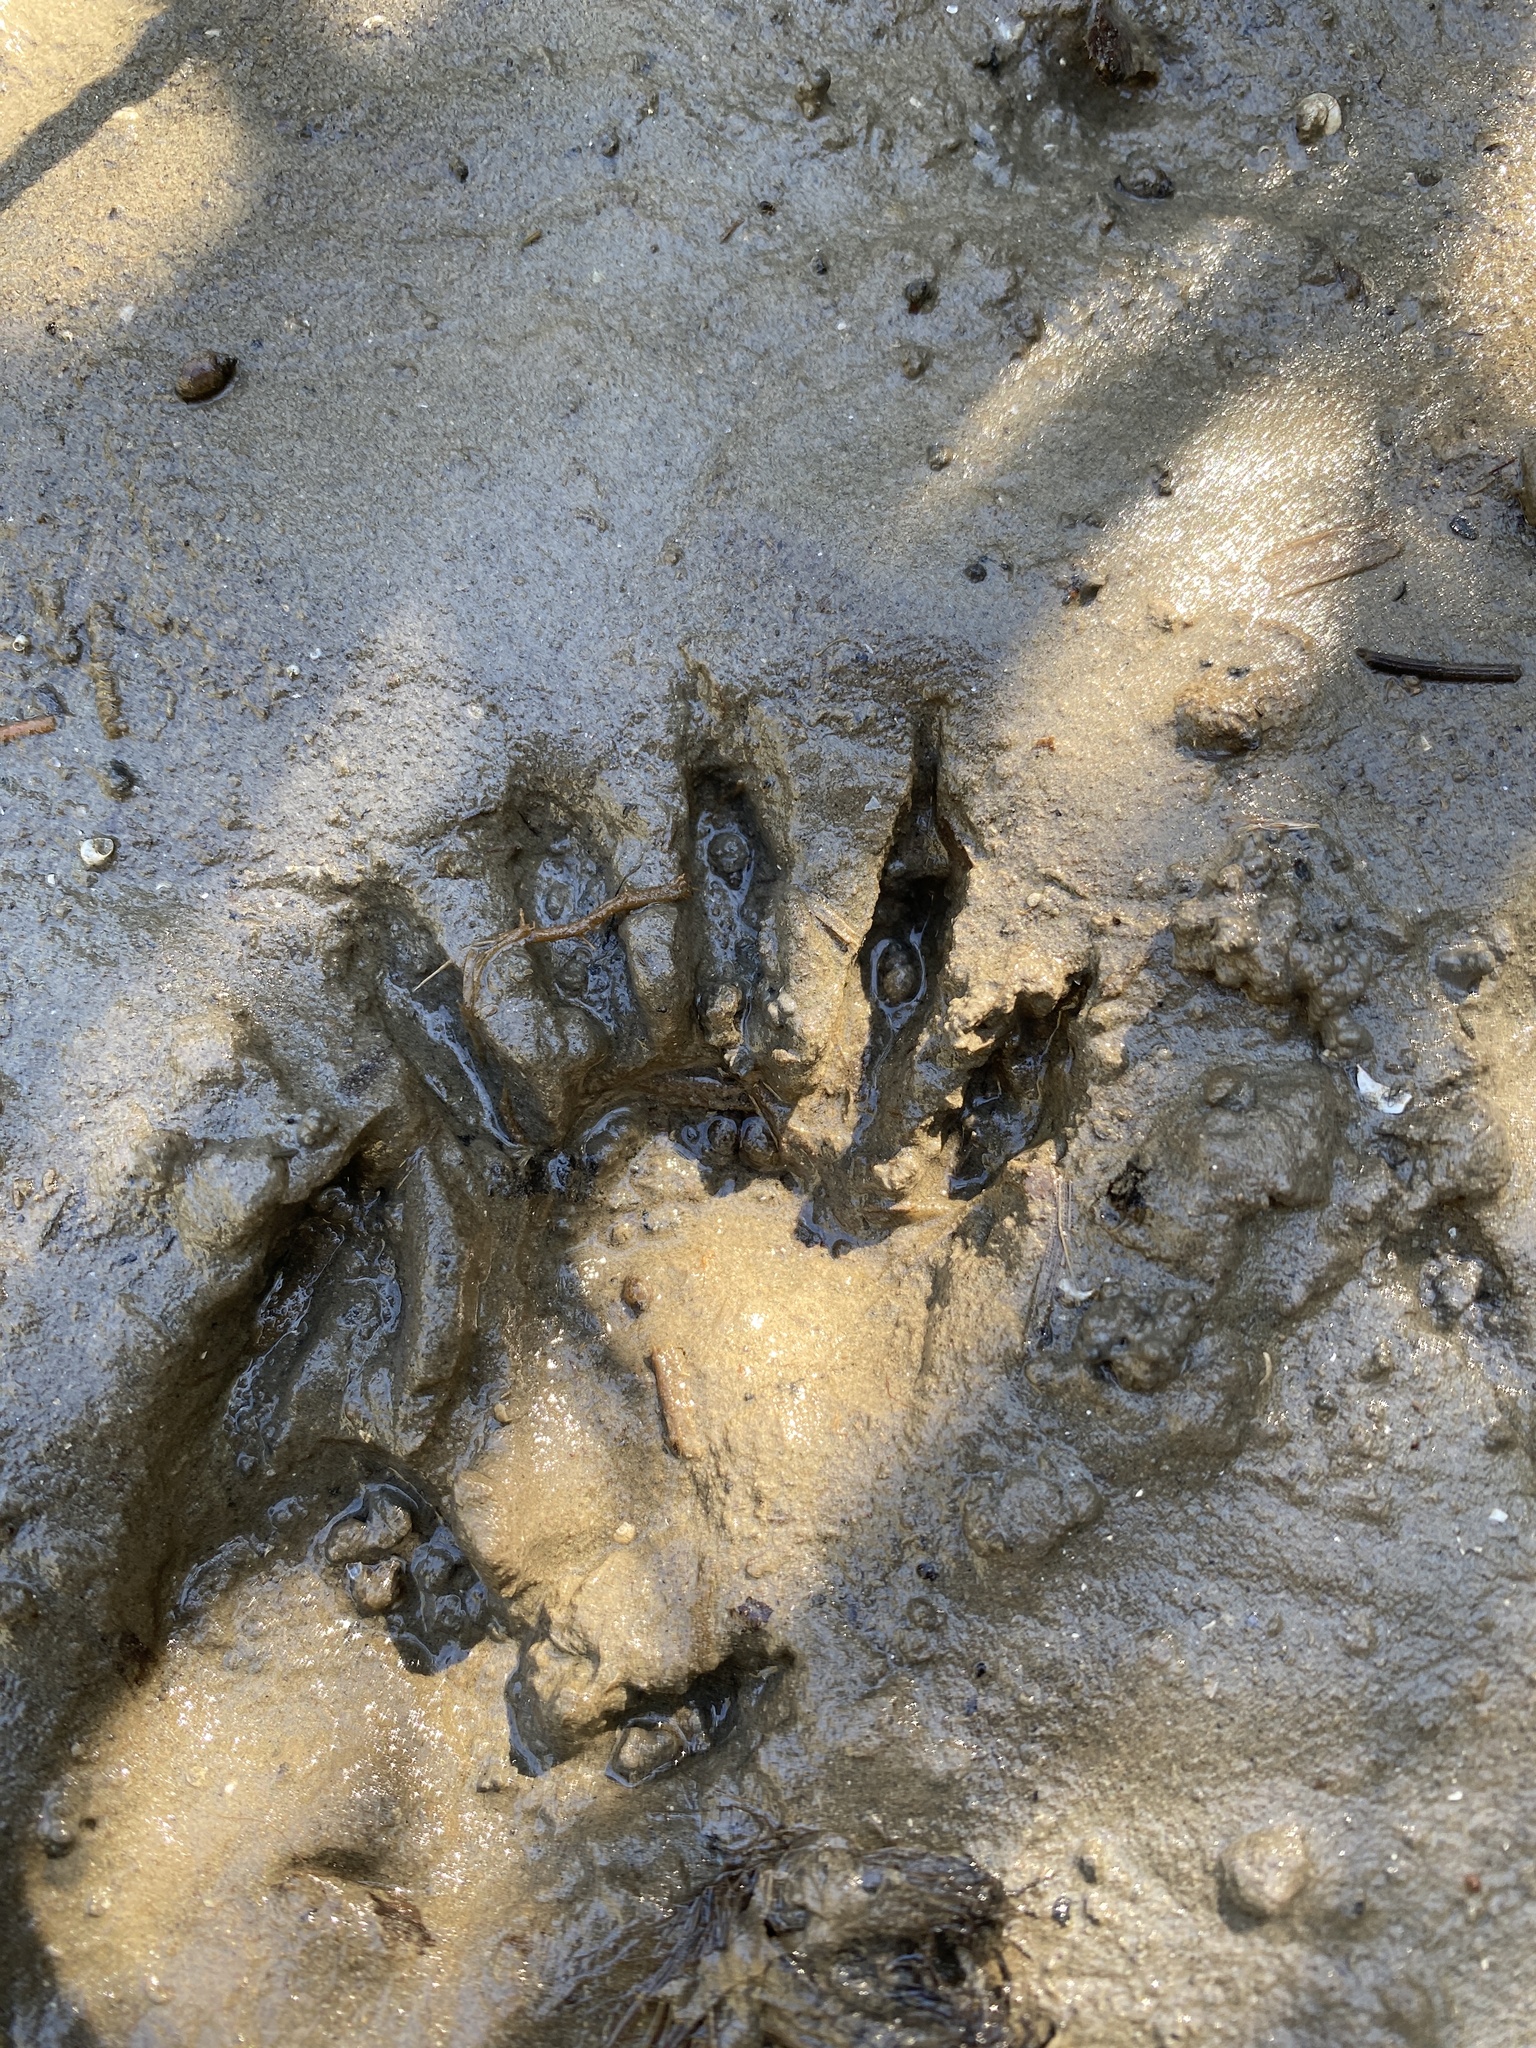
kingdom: Animalia
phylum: Chordata
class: Mammalia
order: Carnivora
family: Procyonidae
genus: Procyon
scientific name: Procyon lotor
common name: Raccoon
